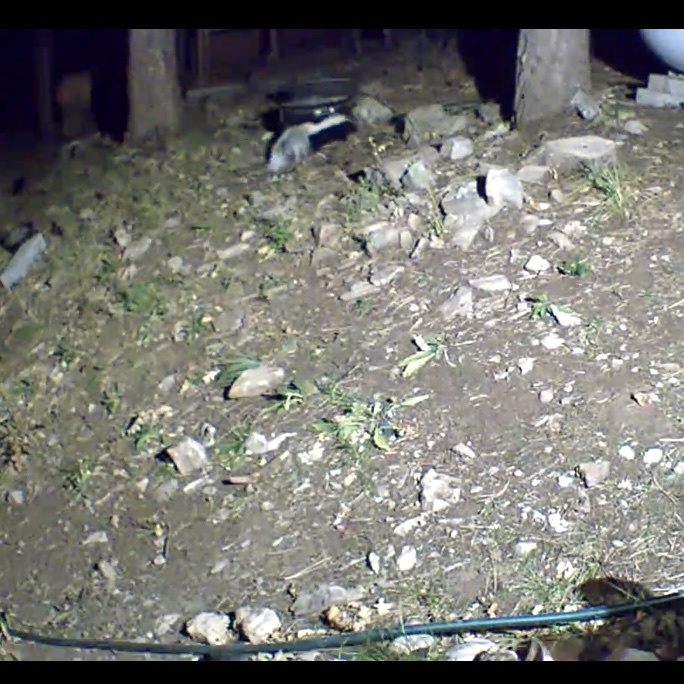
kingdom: Animalia
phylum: Chordata
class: Mammalia
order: Carnivora
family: Mephitidae
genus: Mephitis
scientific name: Mephitis mephitis
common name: Striped skunk
